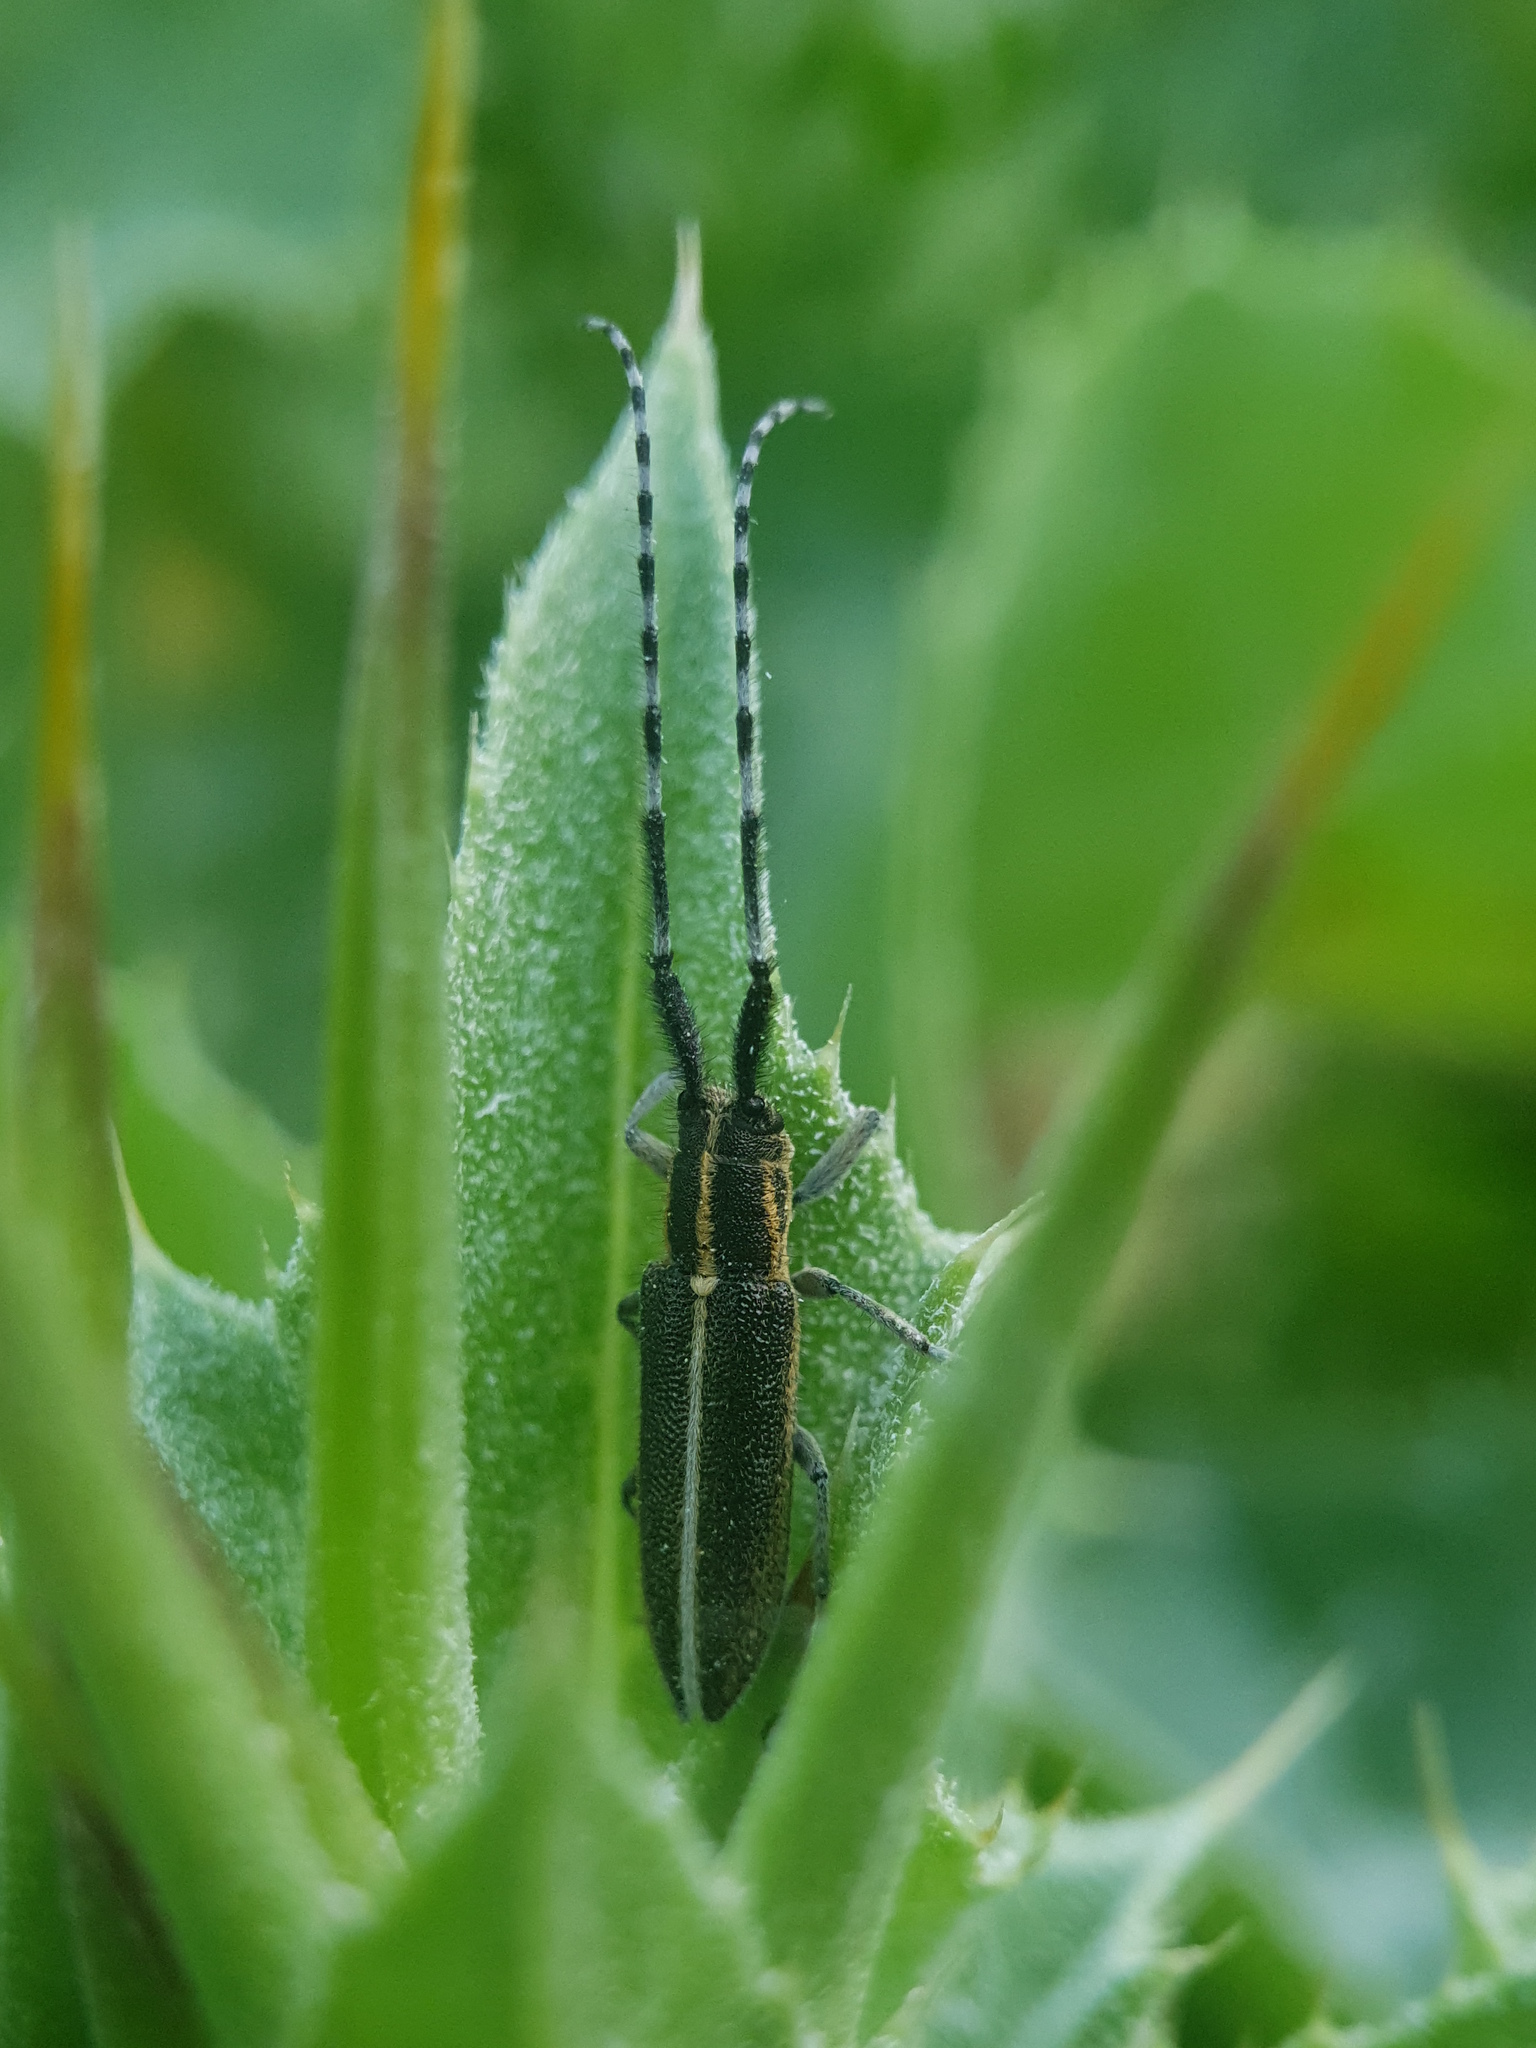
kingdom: Animalia
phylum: Arthropoda
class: Insecta
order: Coleoptera
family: Cerambycidae
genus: Agapanthia
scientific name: Agapanthia suturalis
